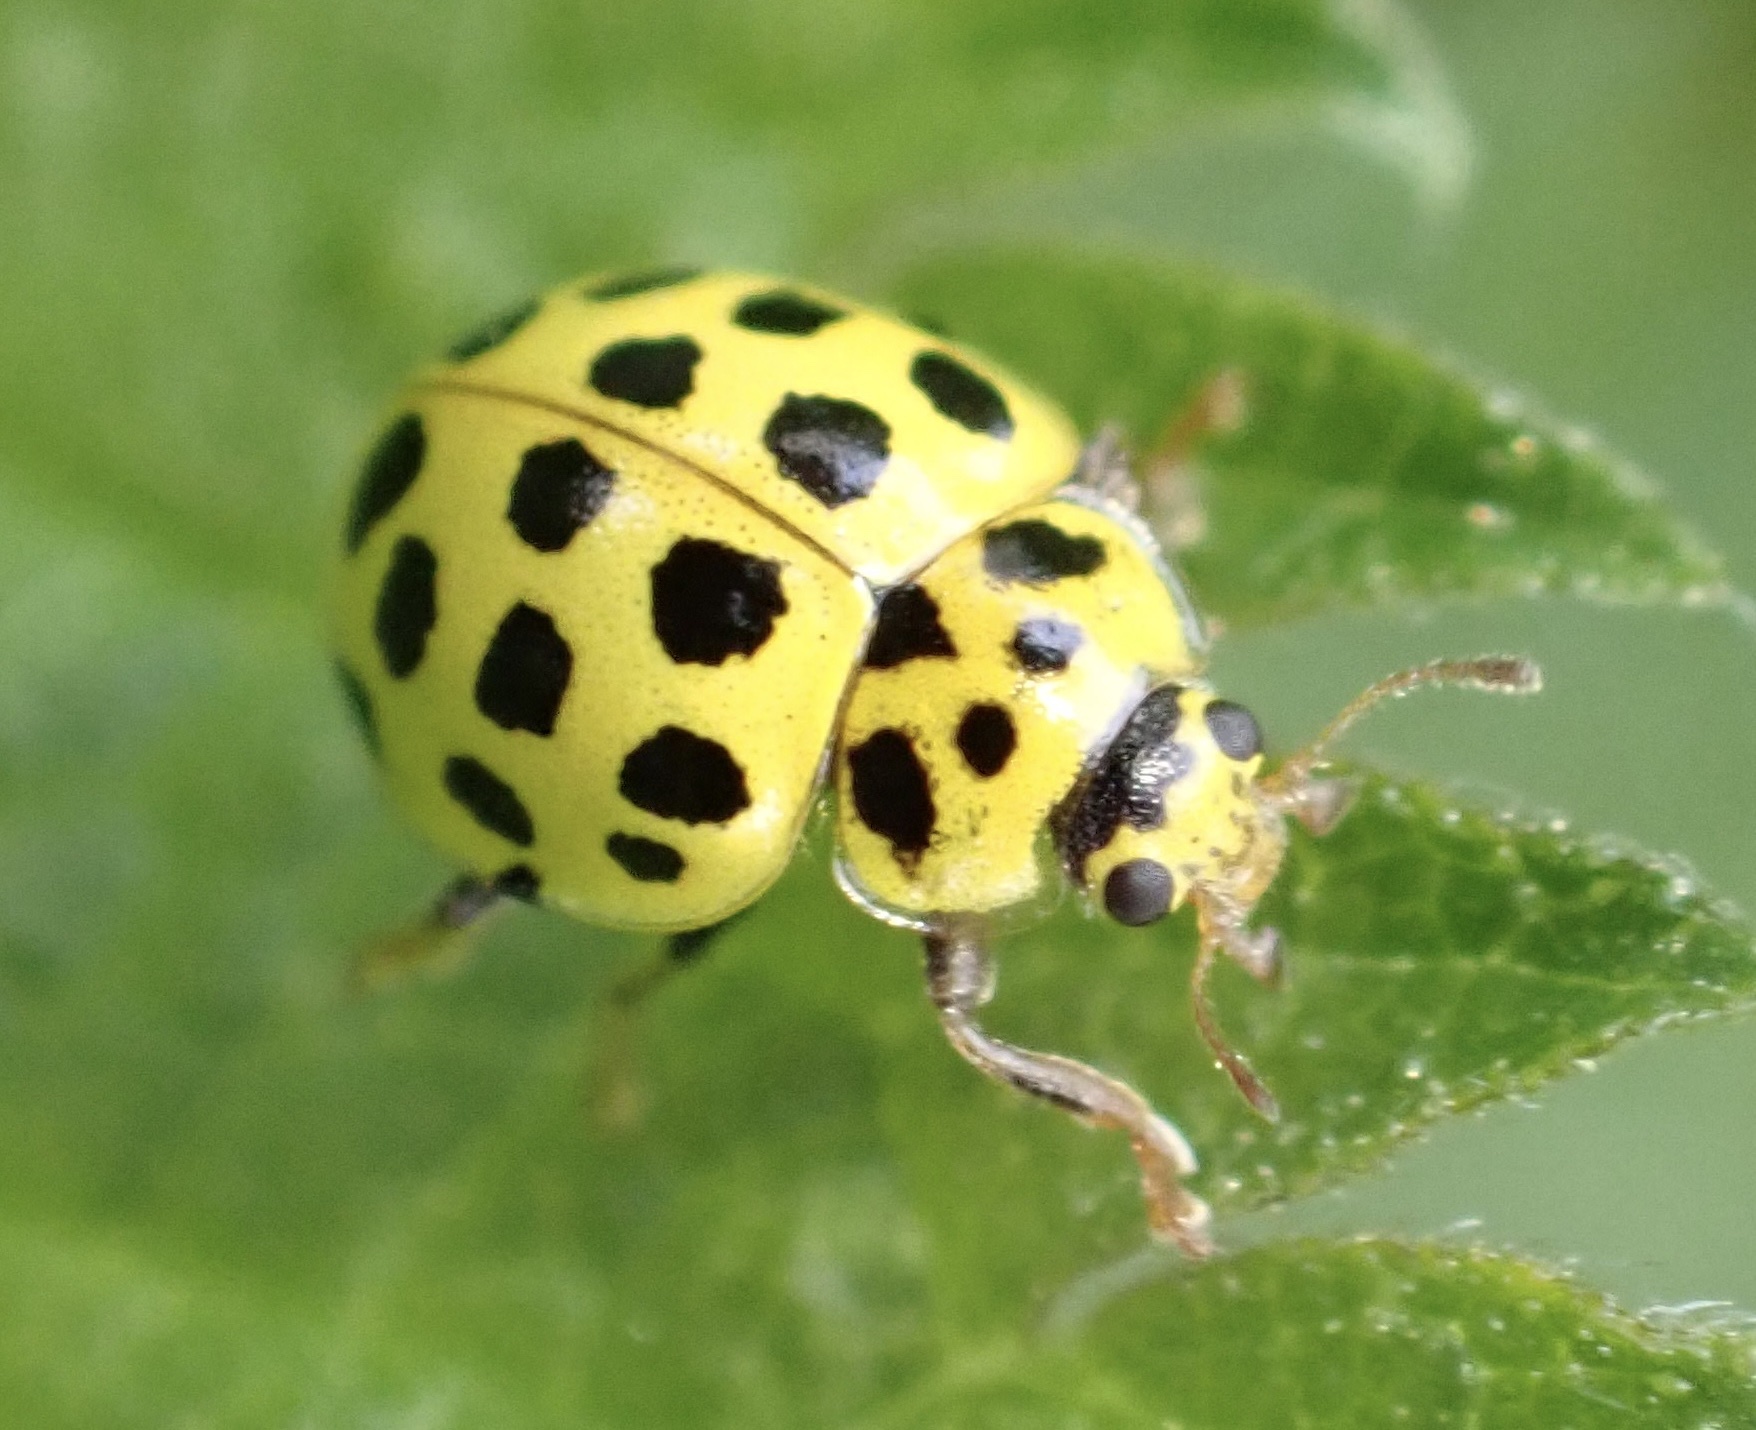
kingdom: Animalia
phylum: Arthropoda
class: Insecta
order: Coleoptera
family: Coccinellidae
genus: Psyllobora
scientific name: Psyllobora vigintiduopunctata
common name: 22-spot ladybird
